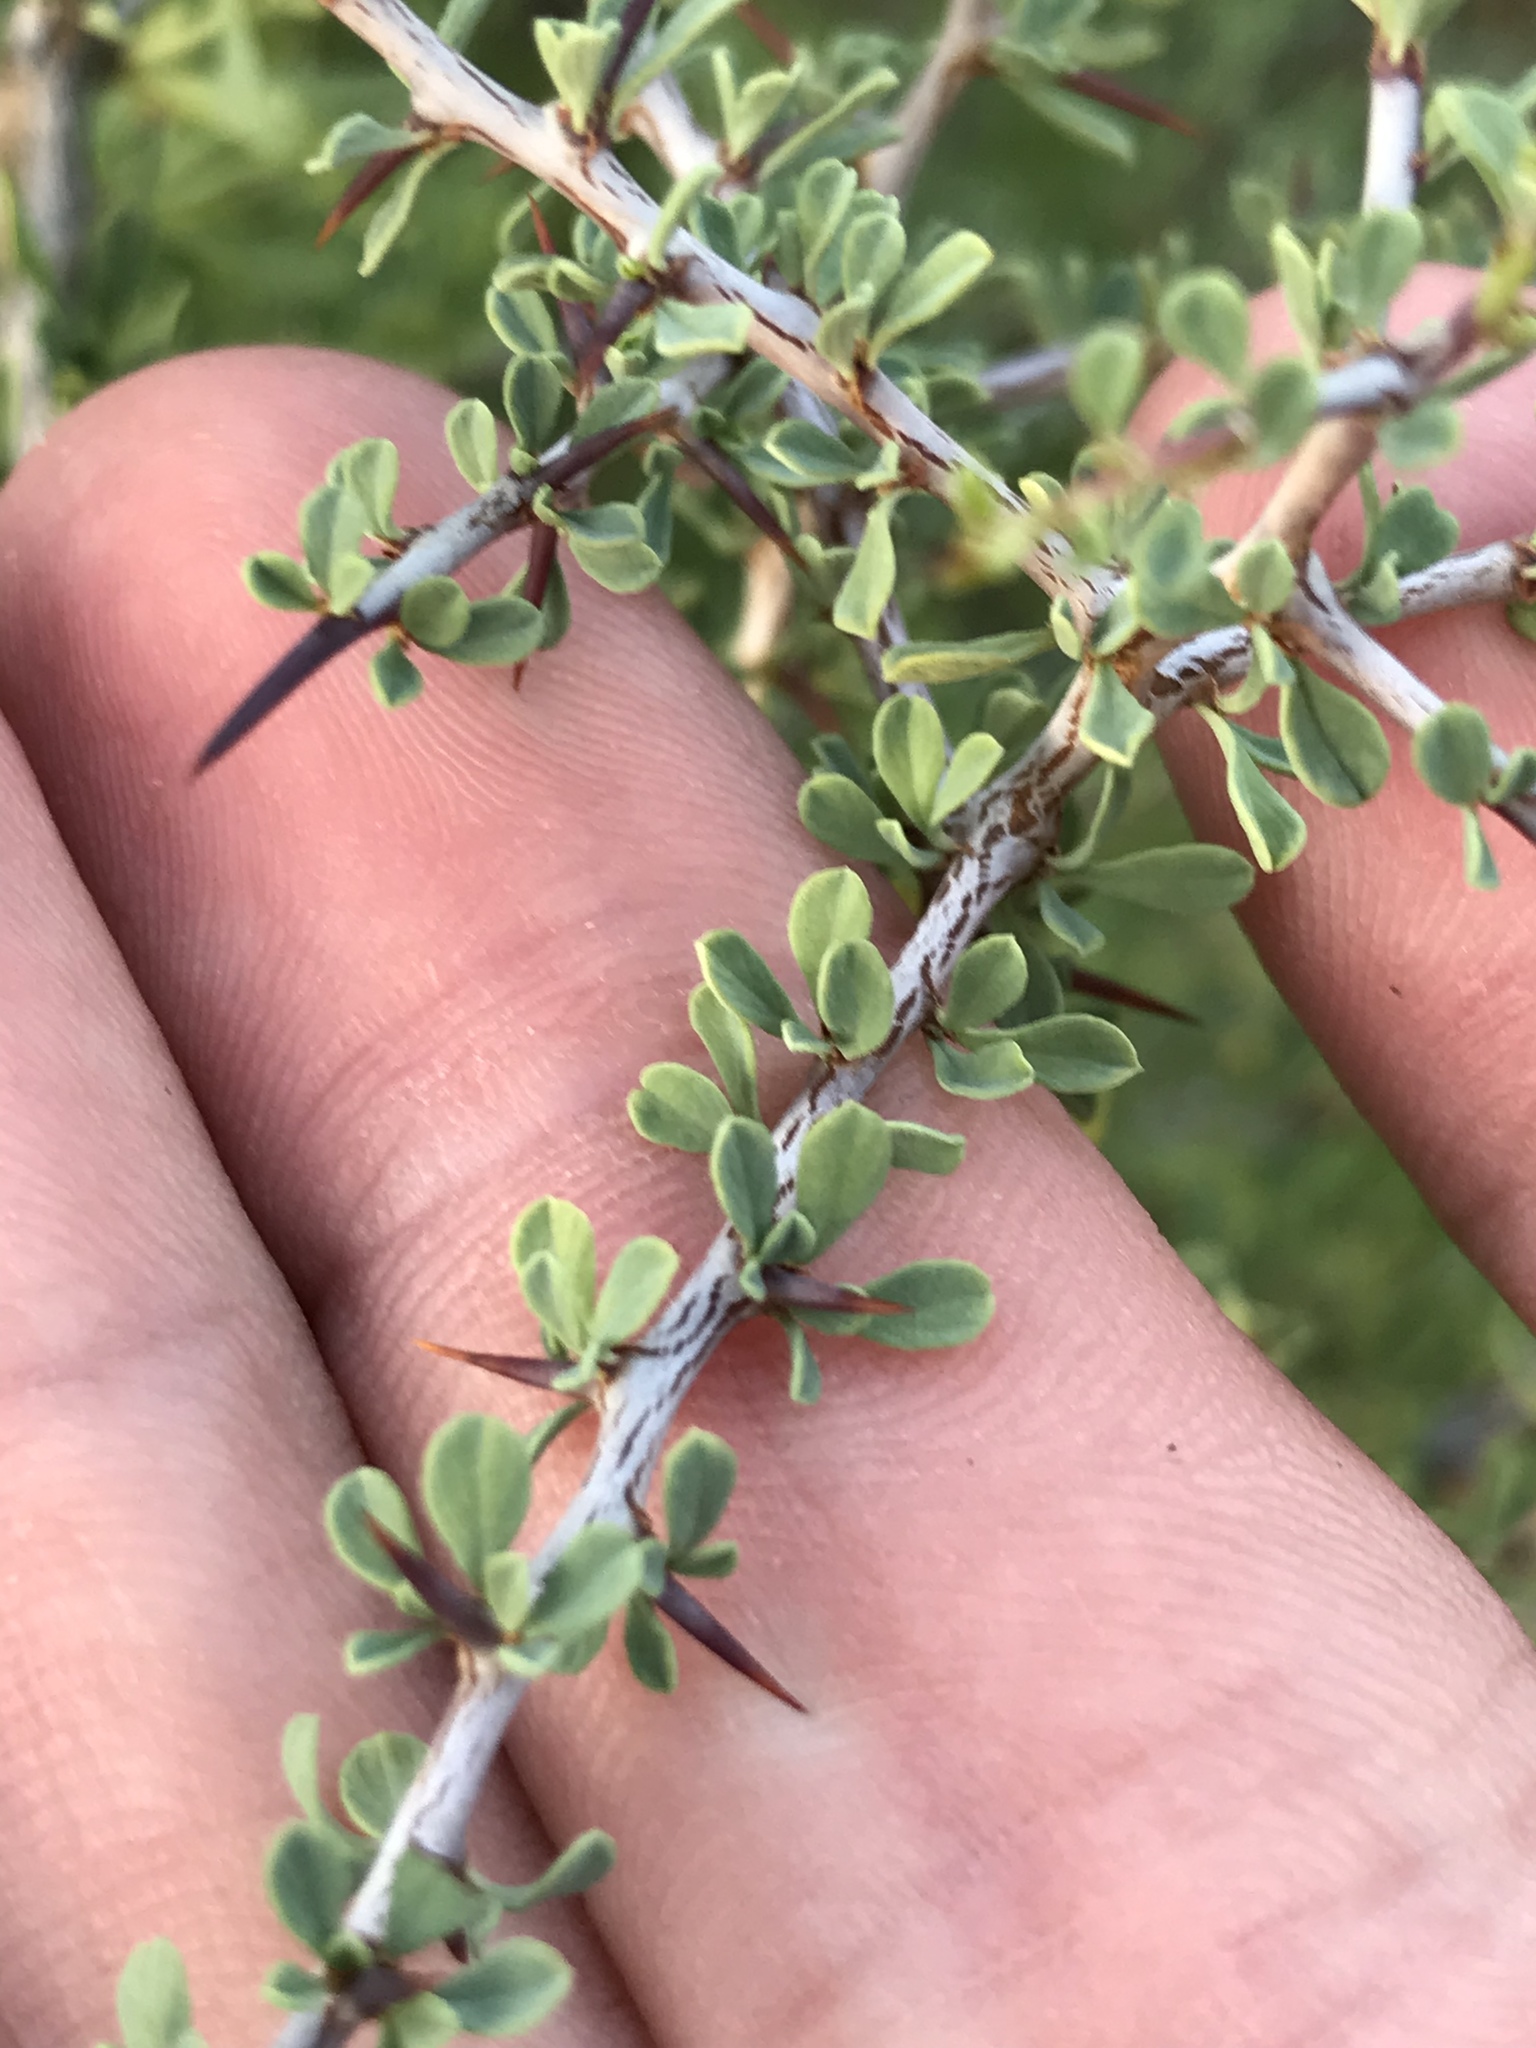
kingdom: Plantae
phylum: Tracheophyta
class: Magnoliopsida
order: Rosales
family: Rhamnaceae
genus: Condalia
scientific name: Condalia spathulata
